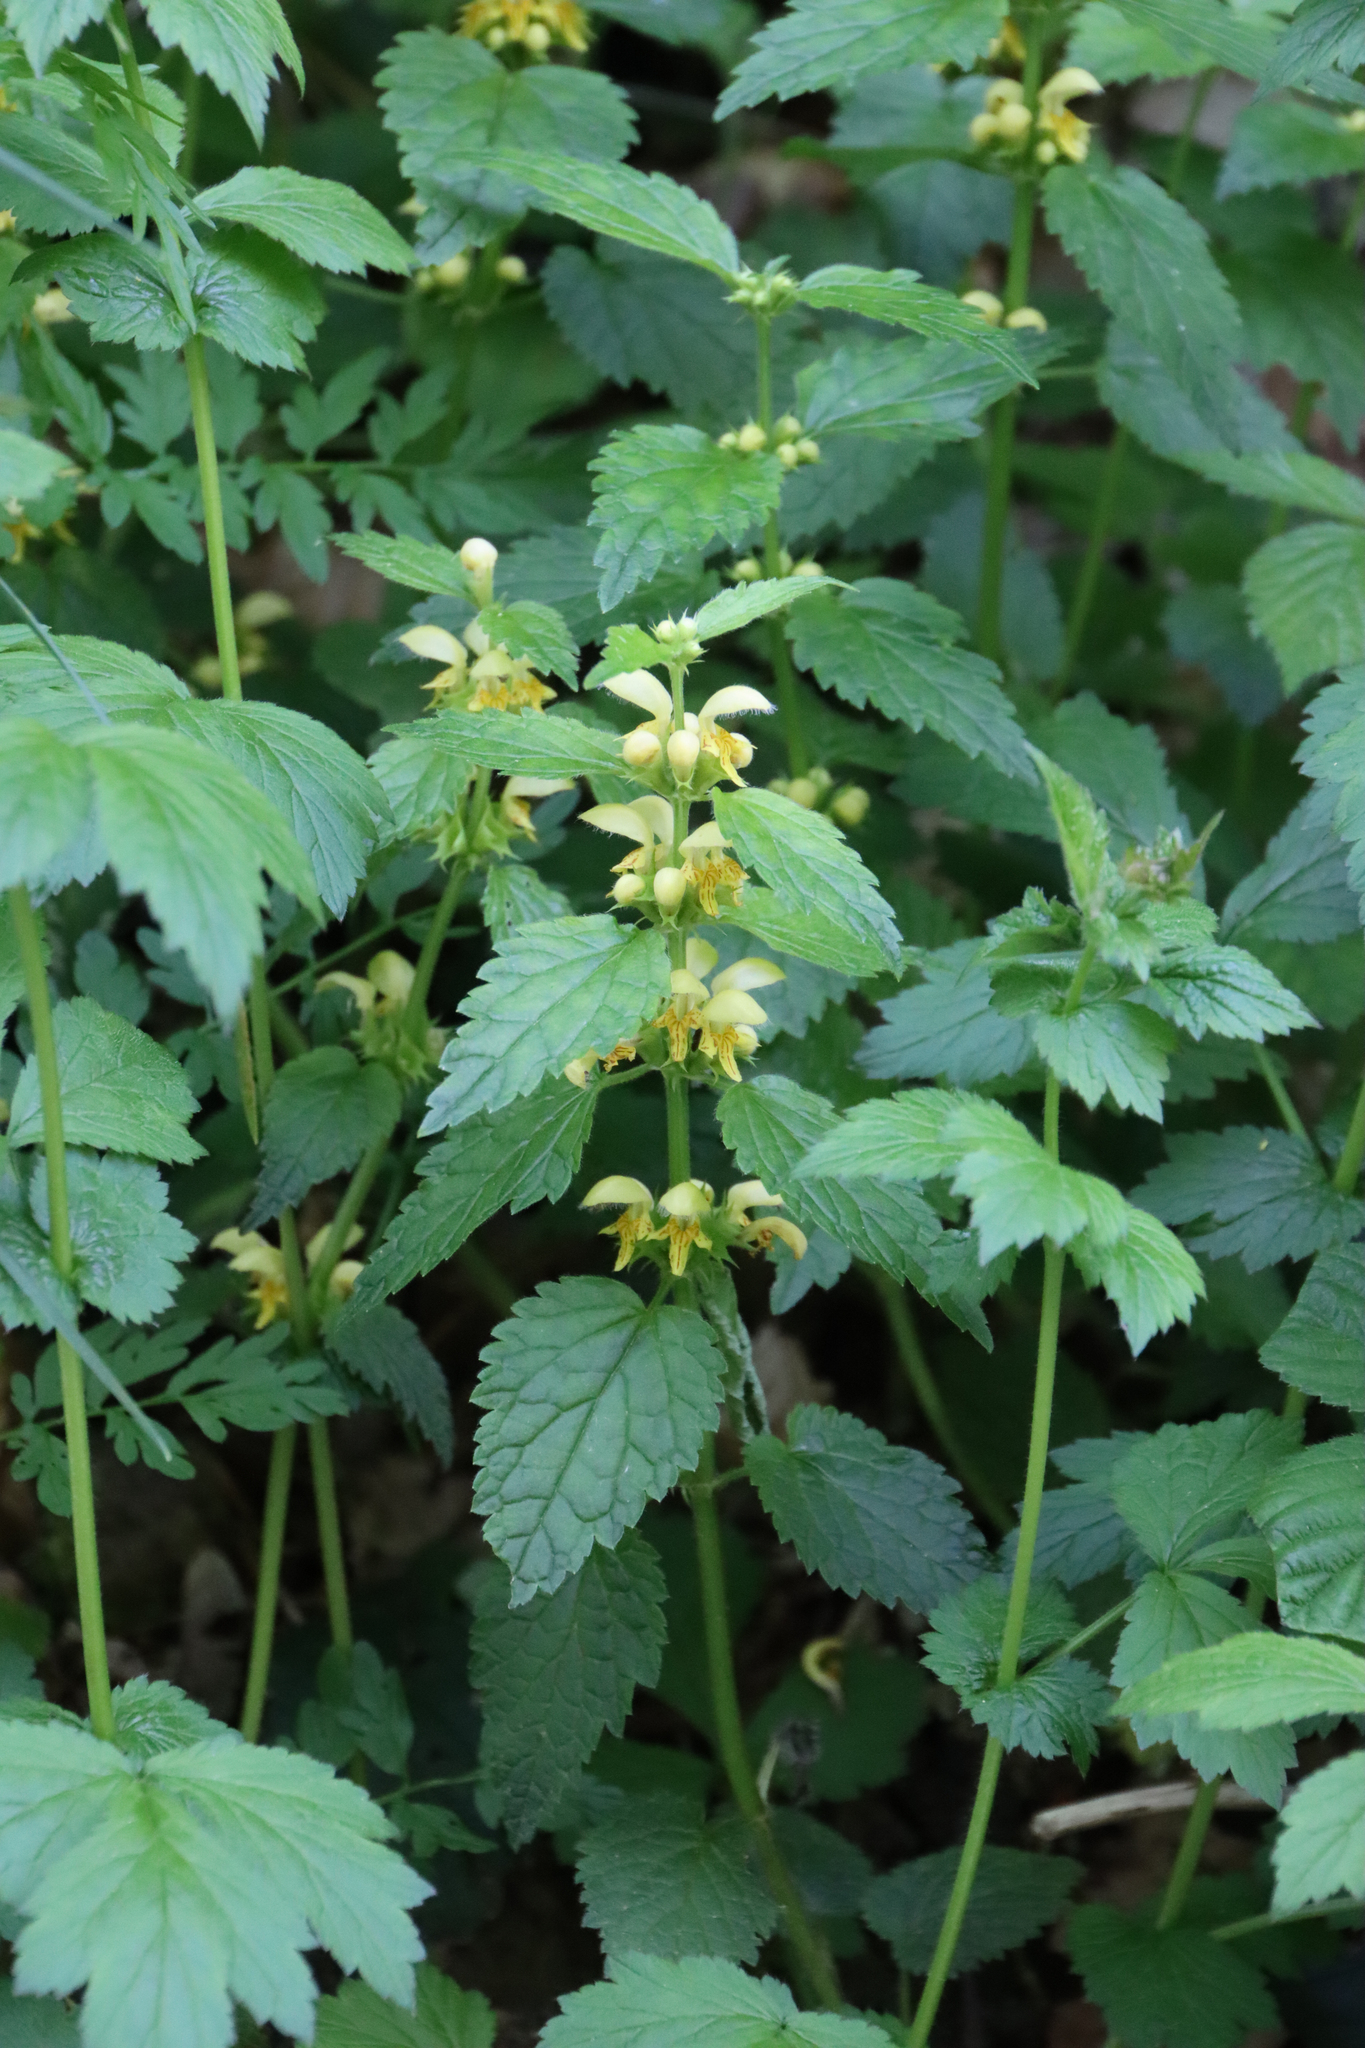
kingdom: Plantae
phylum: Tracheophyta
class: Magnoliopsida
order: Lamiales
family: Lamiaceae
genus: Lamium
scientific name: Lamium galeobdolon
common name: Yellow archangel
